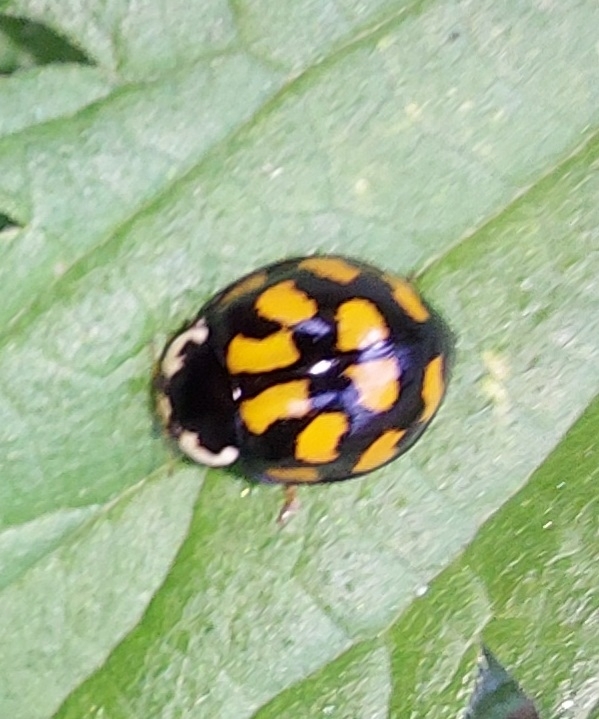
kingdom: Animalia
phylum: Arthropoda
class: Insecta
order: Coleoptera
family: Coccinellidae
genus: Harmonia
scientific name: Harmonia axyridis
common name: Harlequin ladybird
